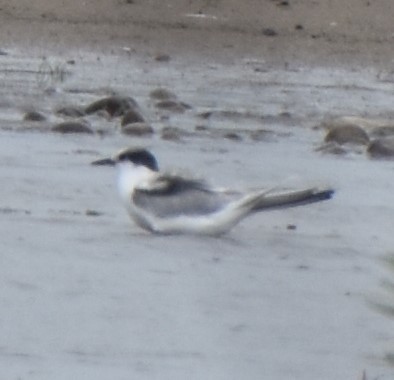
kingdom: Animalia
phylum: Chordata
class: Aves
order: Charadriiformes
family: Laridae
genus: Sterna
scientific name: Sterna hirundo
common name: Common tern
